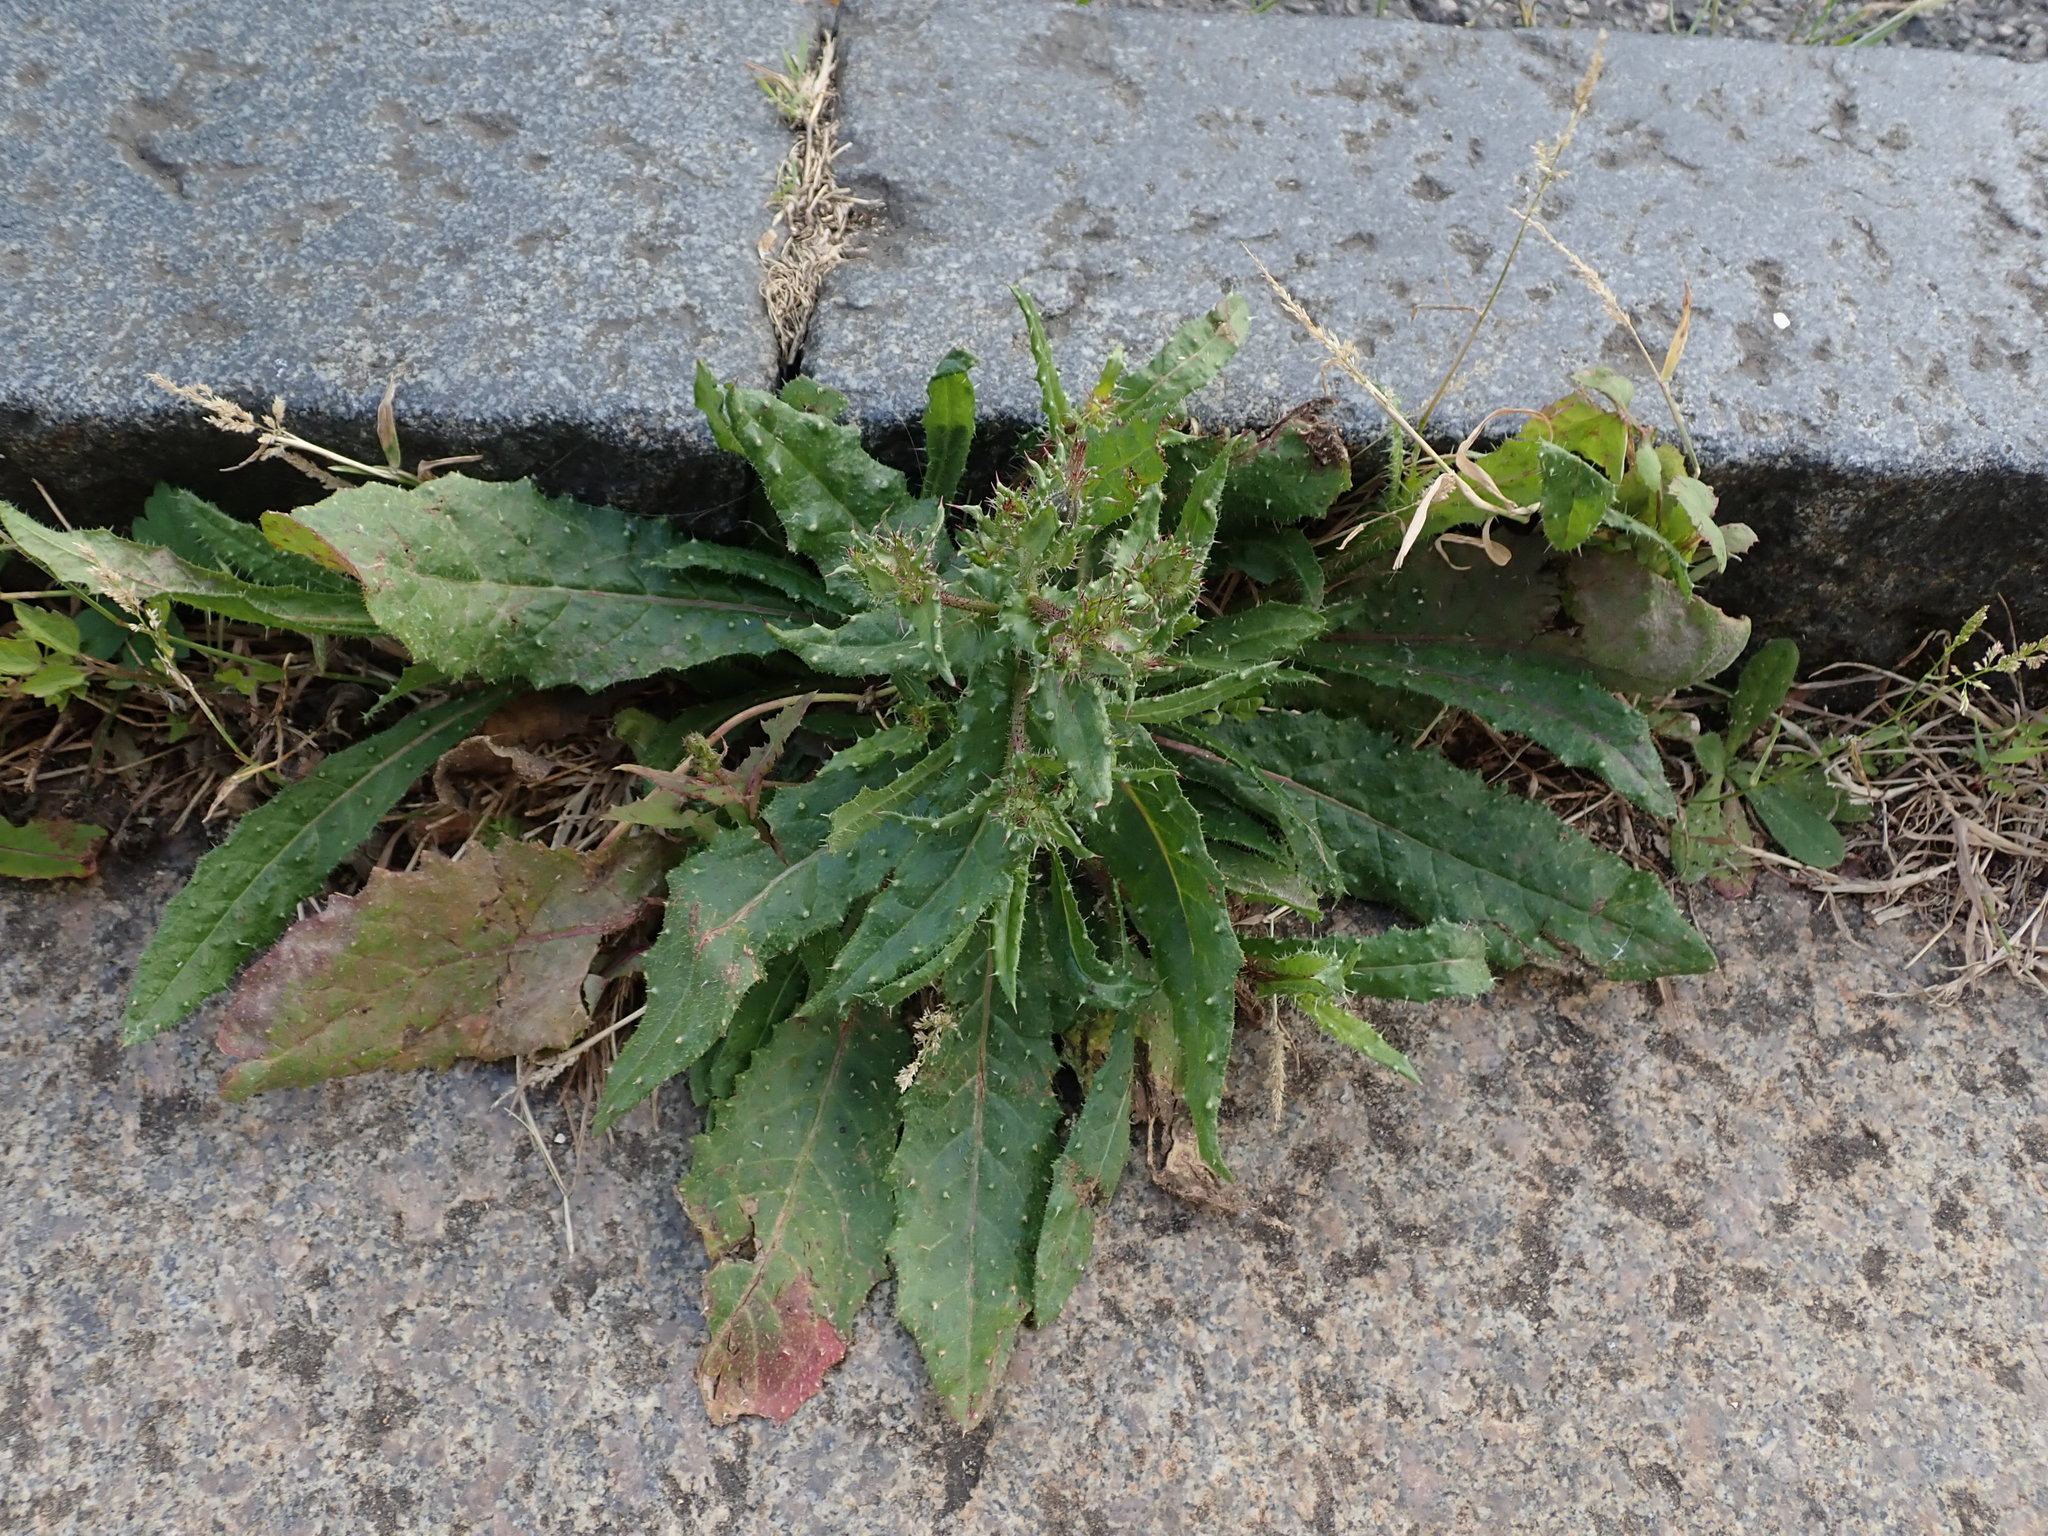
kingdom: Plantae
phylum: Tracheophyta
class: Magnoliopsida
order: Asterales
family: Asteraceae
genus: Helminthotheca
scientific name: Helminthotheca echioides
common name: Ox-tongue
